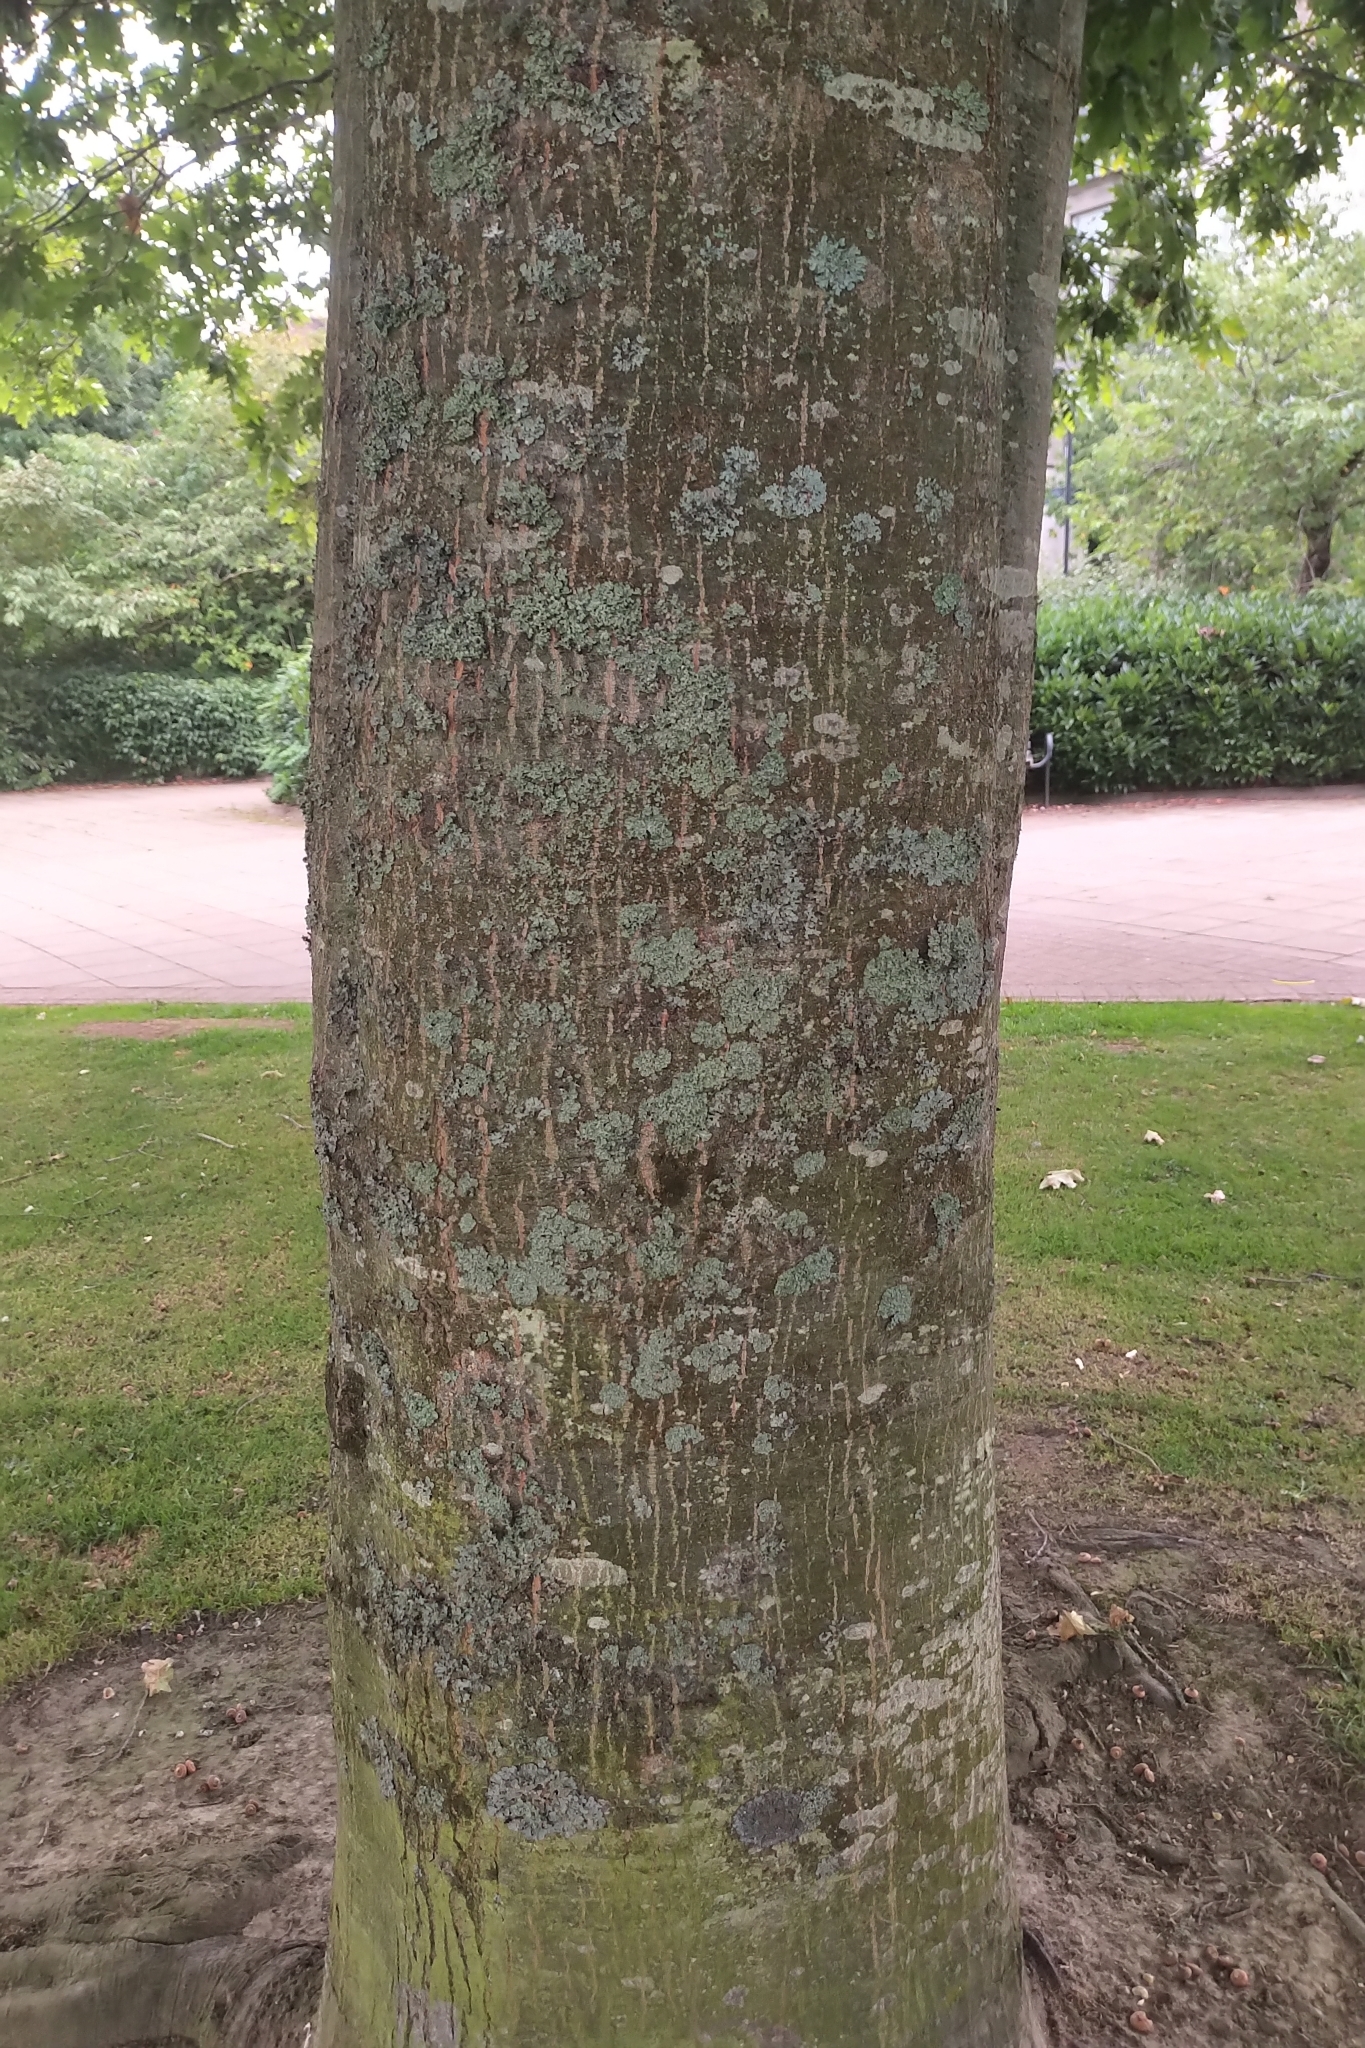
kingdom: Plantae
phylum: Tracheophyta
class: Magnoliopsida
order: Fagales
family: Fagaceae
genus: Quercus
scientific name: Quercus rubra
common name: Red oak
